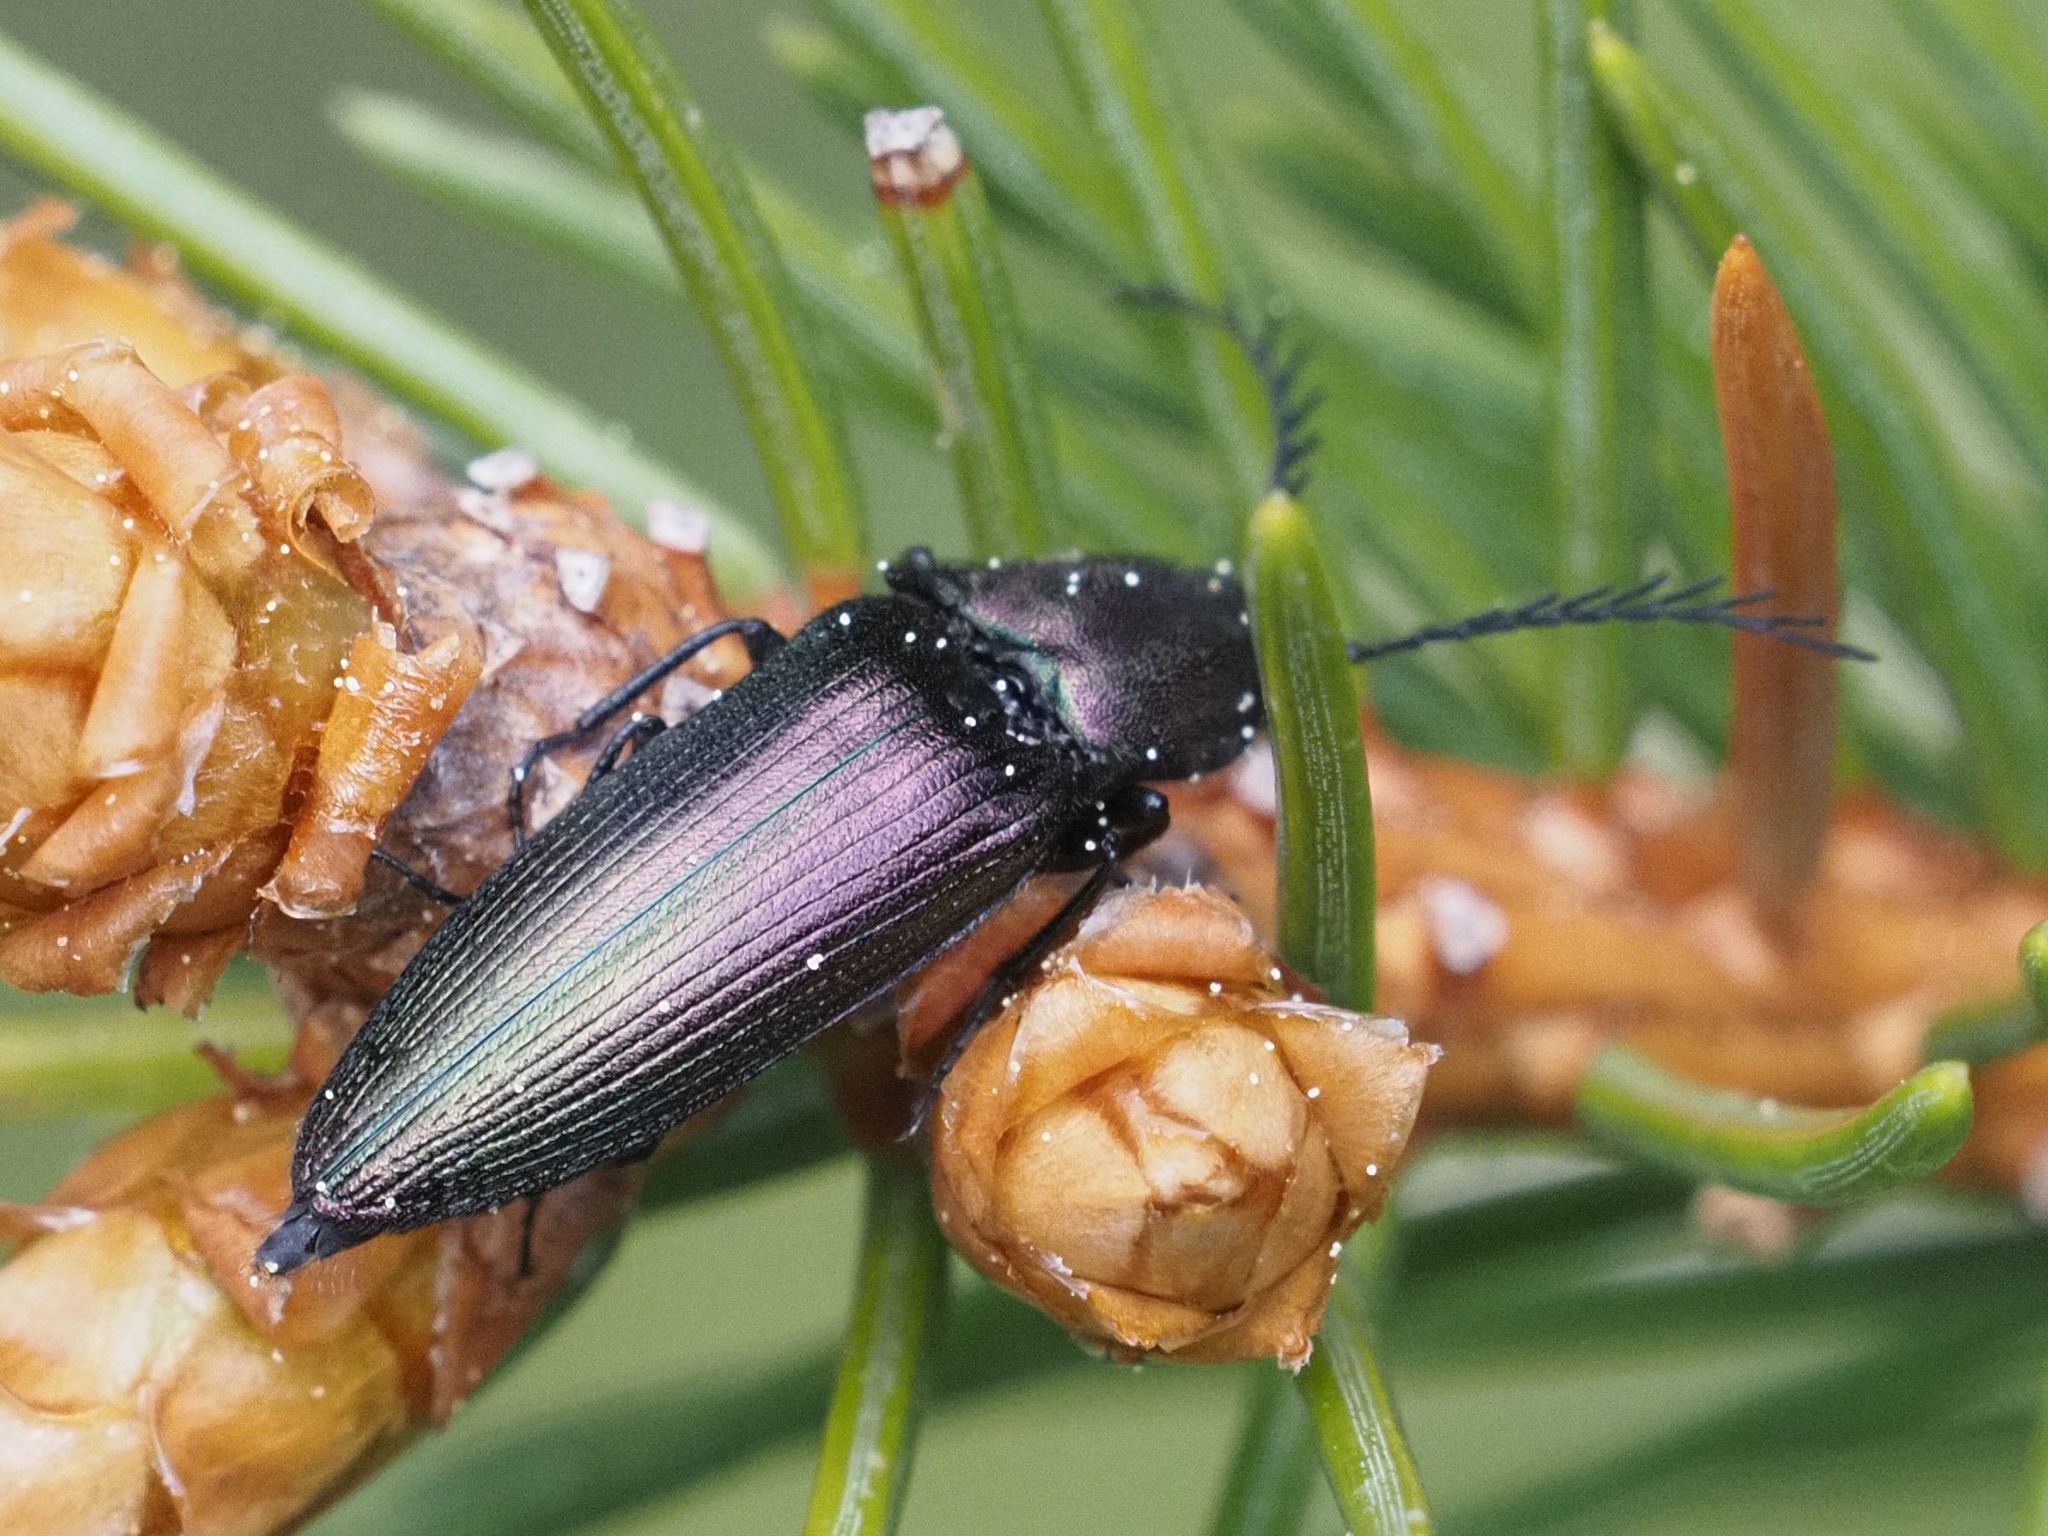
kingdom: Animalia
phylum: Arthropoda
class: Insecta
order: Coleoptera
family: Elateridae
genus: Ctenicera
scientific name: Ctenicera cuprea
